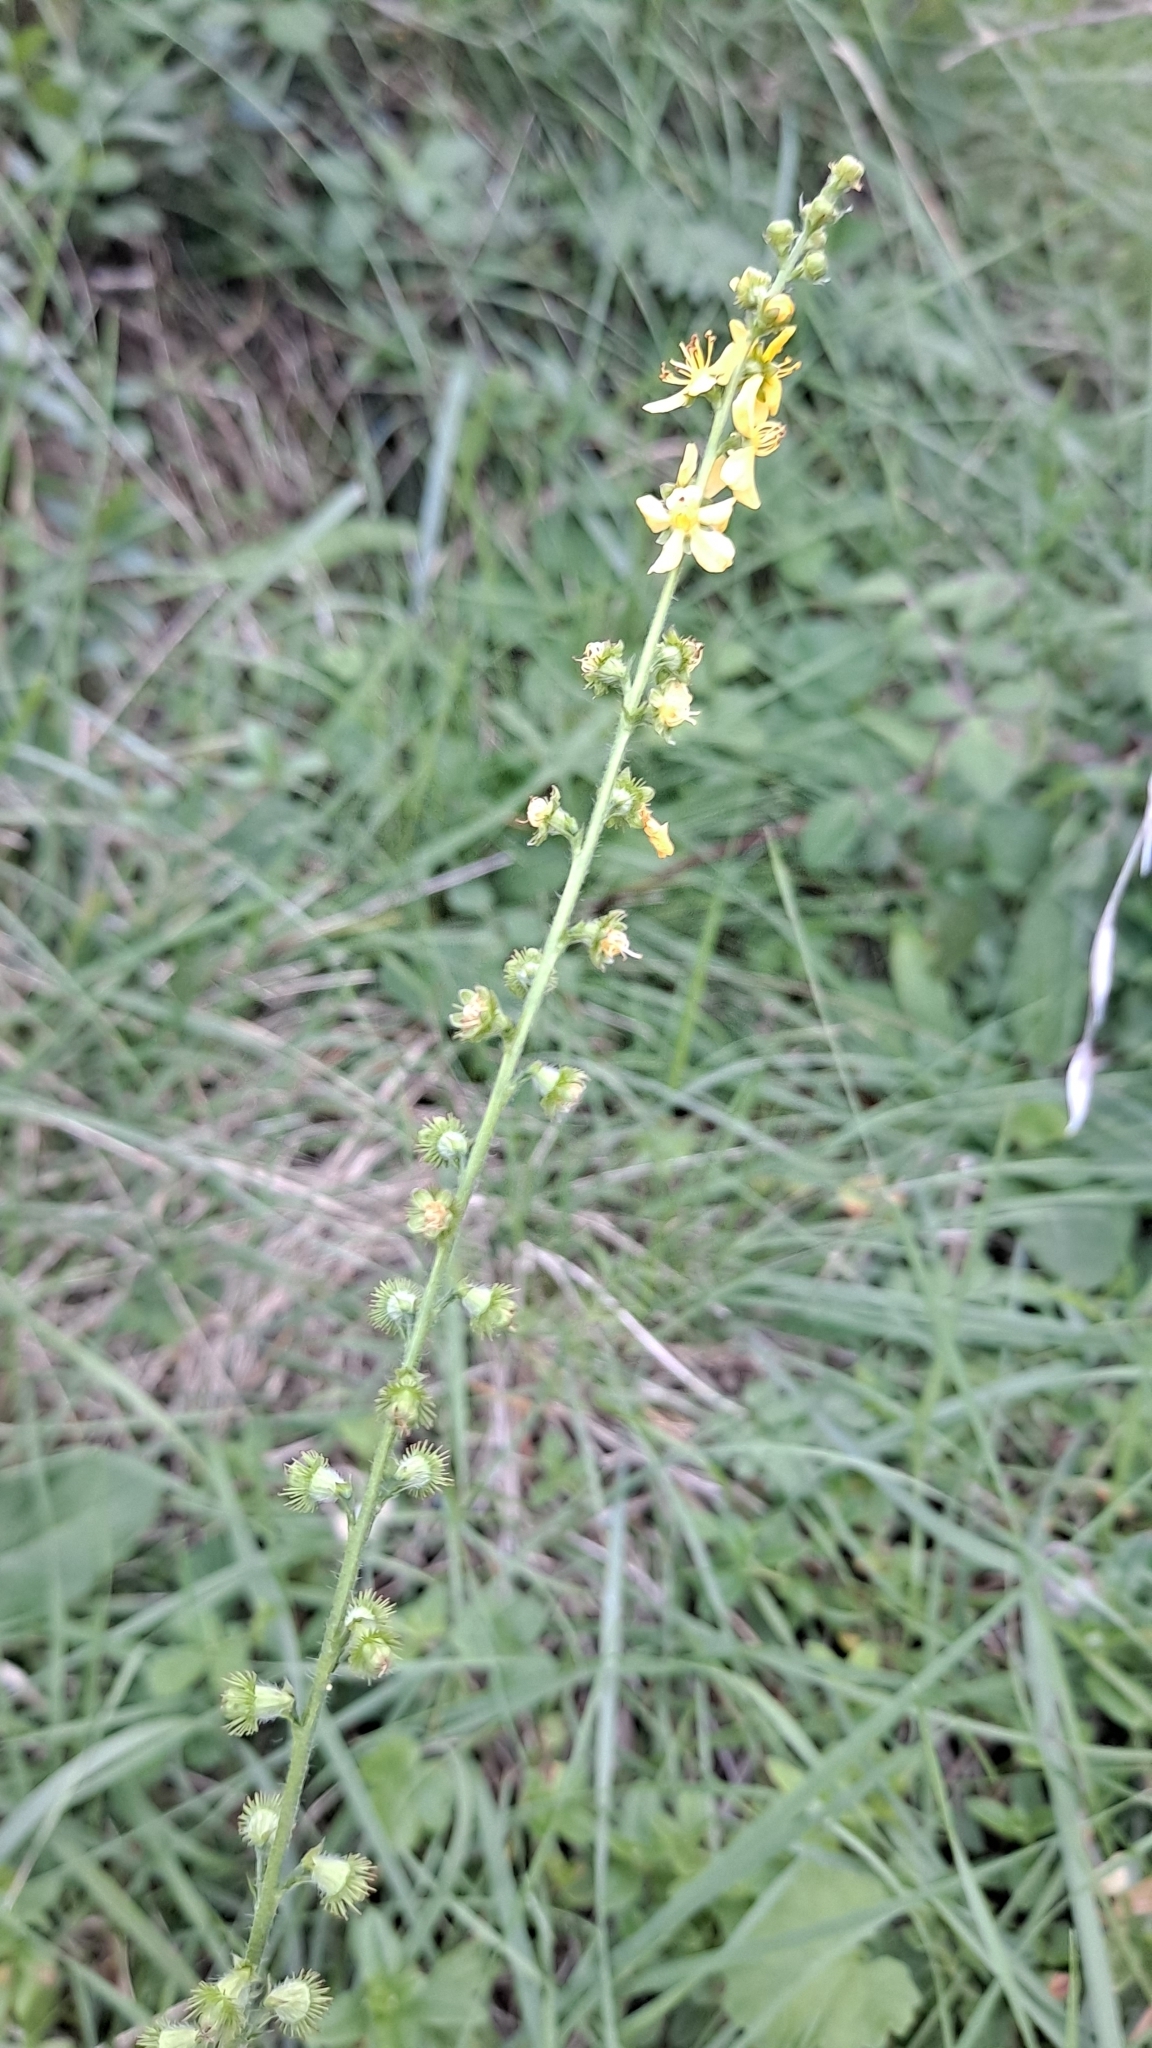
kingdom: Plantae
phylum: Tracheophyta
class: Magnoliopsida
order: Rosales
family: Rosaceae
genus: Agrimonia
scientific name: Agrimonia eupatoria
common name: Agrimony
